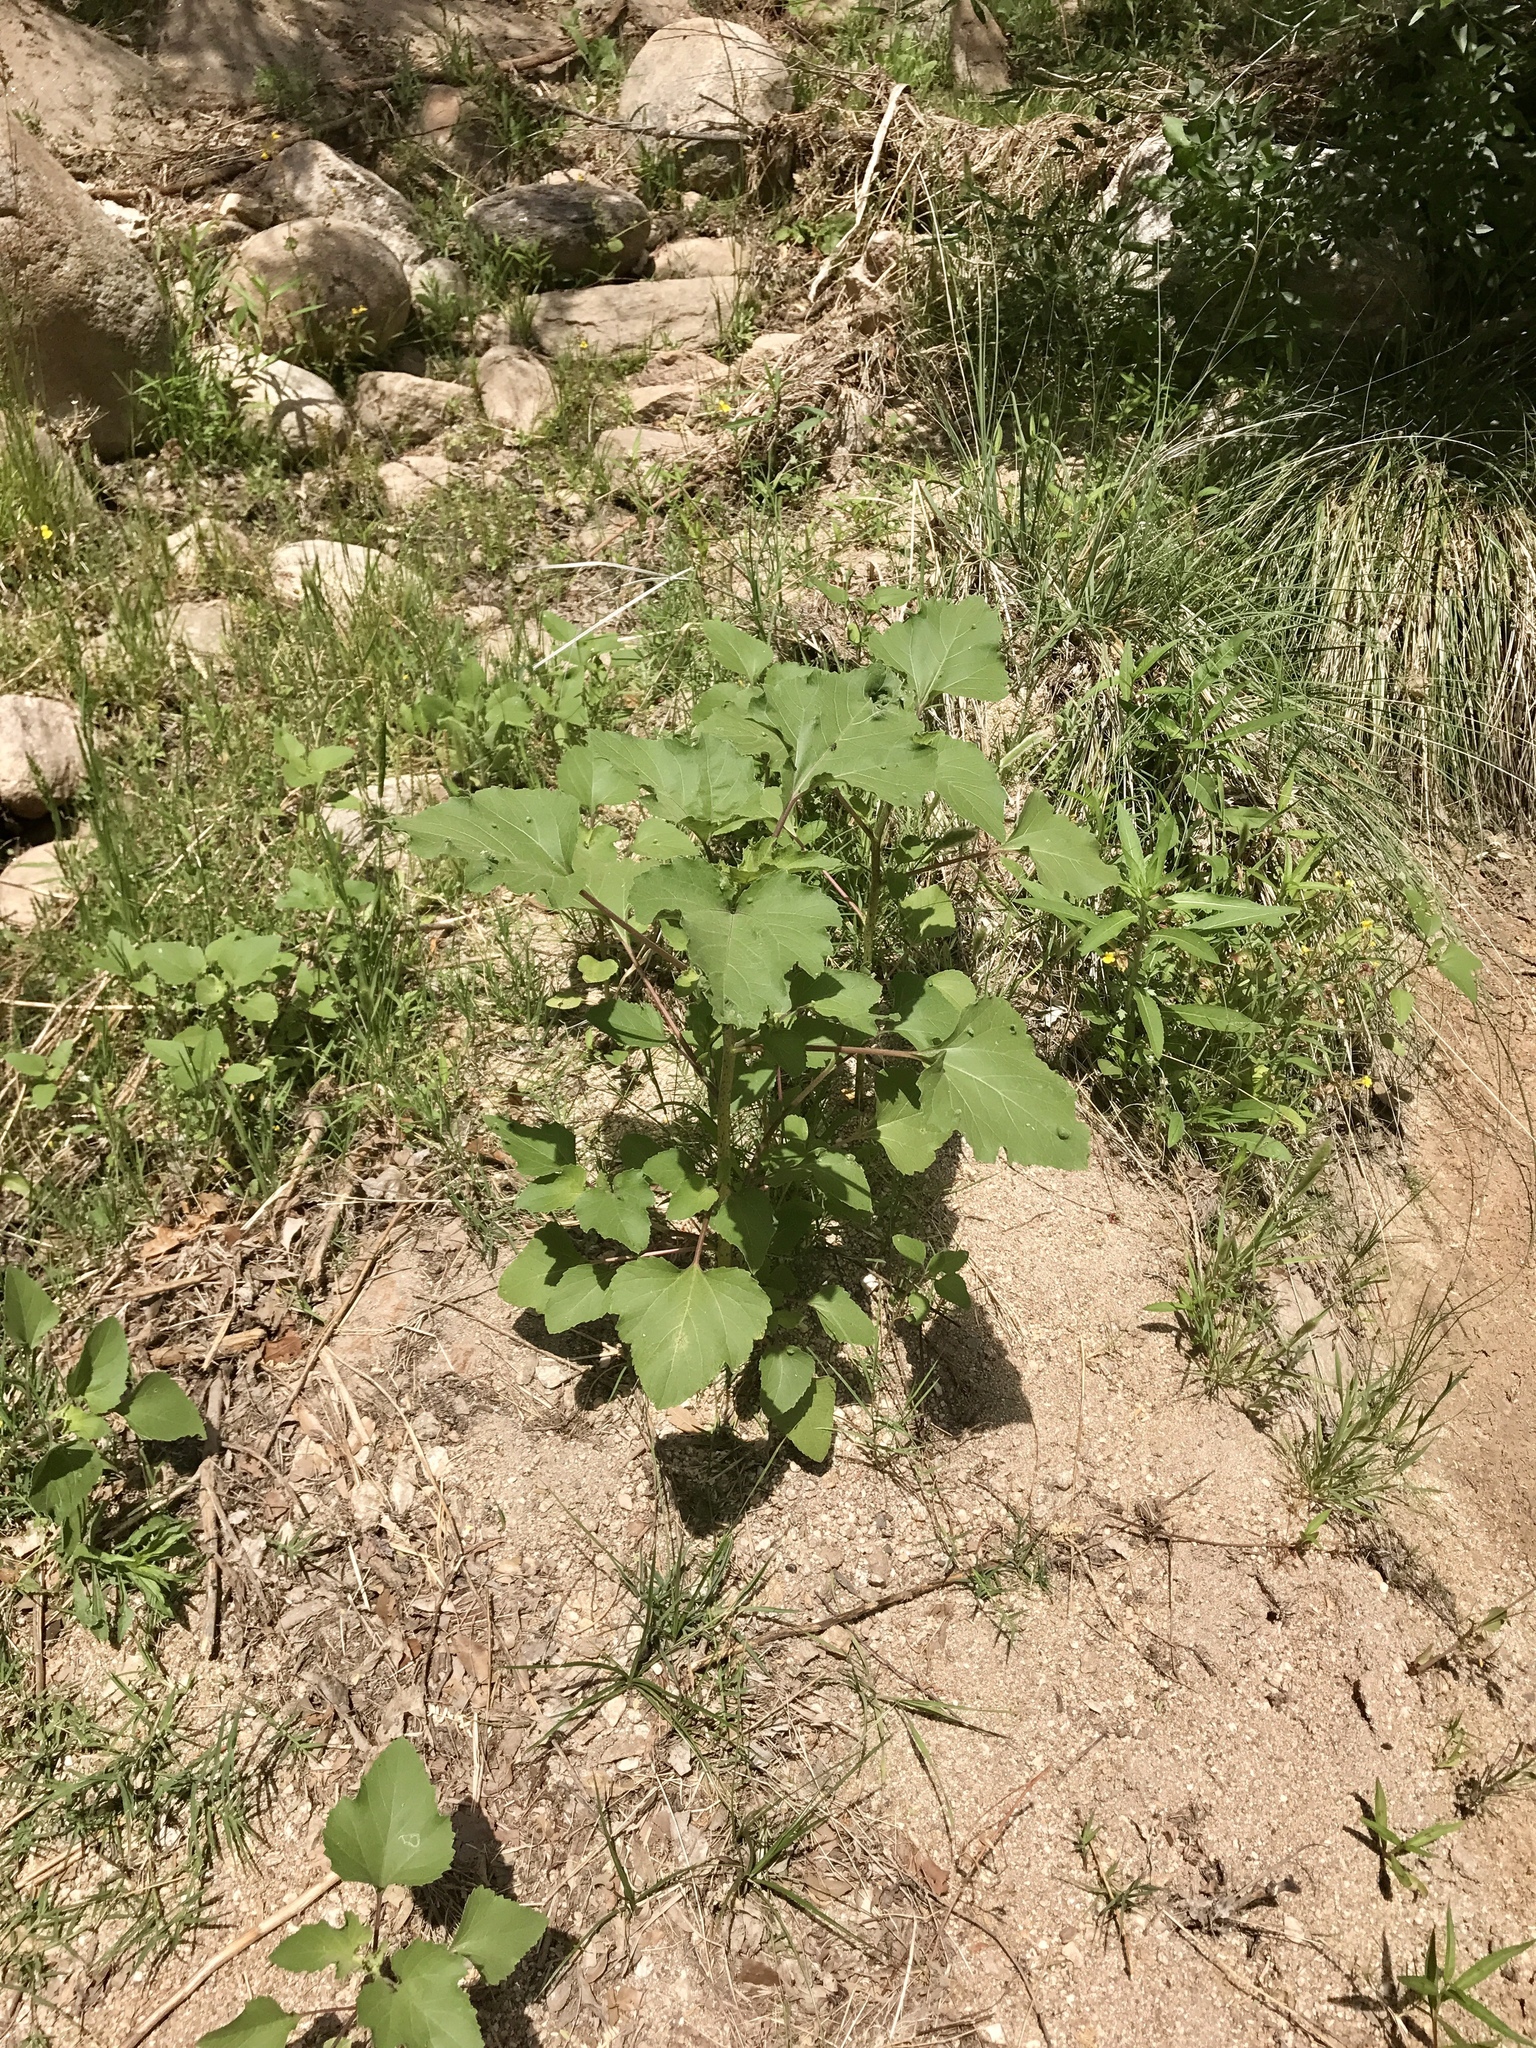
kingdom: Plantae
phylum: Tracheophyta
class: Magnoliopsida
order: Asterales
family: Asteraceae
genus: Xanthium
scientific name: Xanthium strumarium
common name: Rough cocklebur
